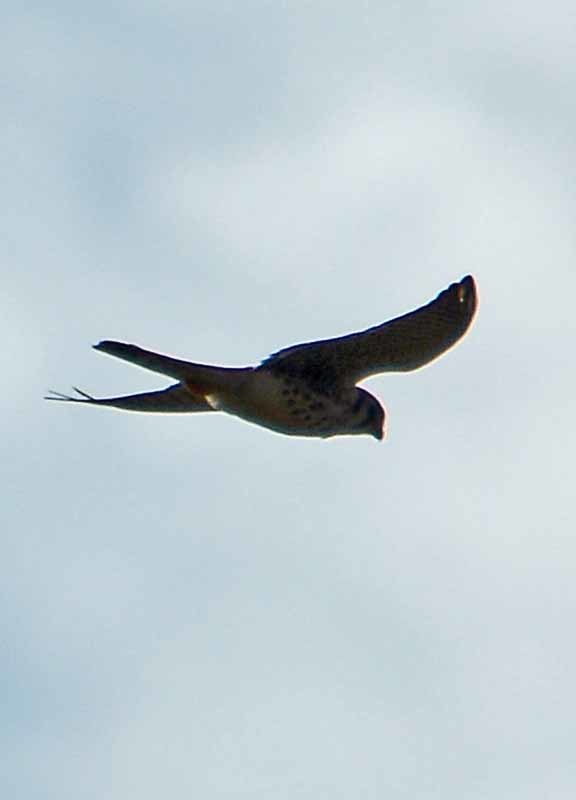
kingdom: Animalia
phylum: Chordata
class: Aves
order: Falconiformes
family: Falconidae
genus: Falco
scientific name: Falco sparverius
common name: American kestrel
